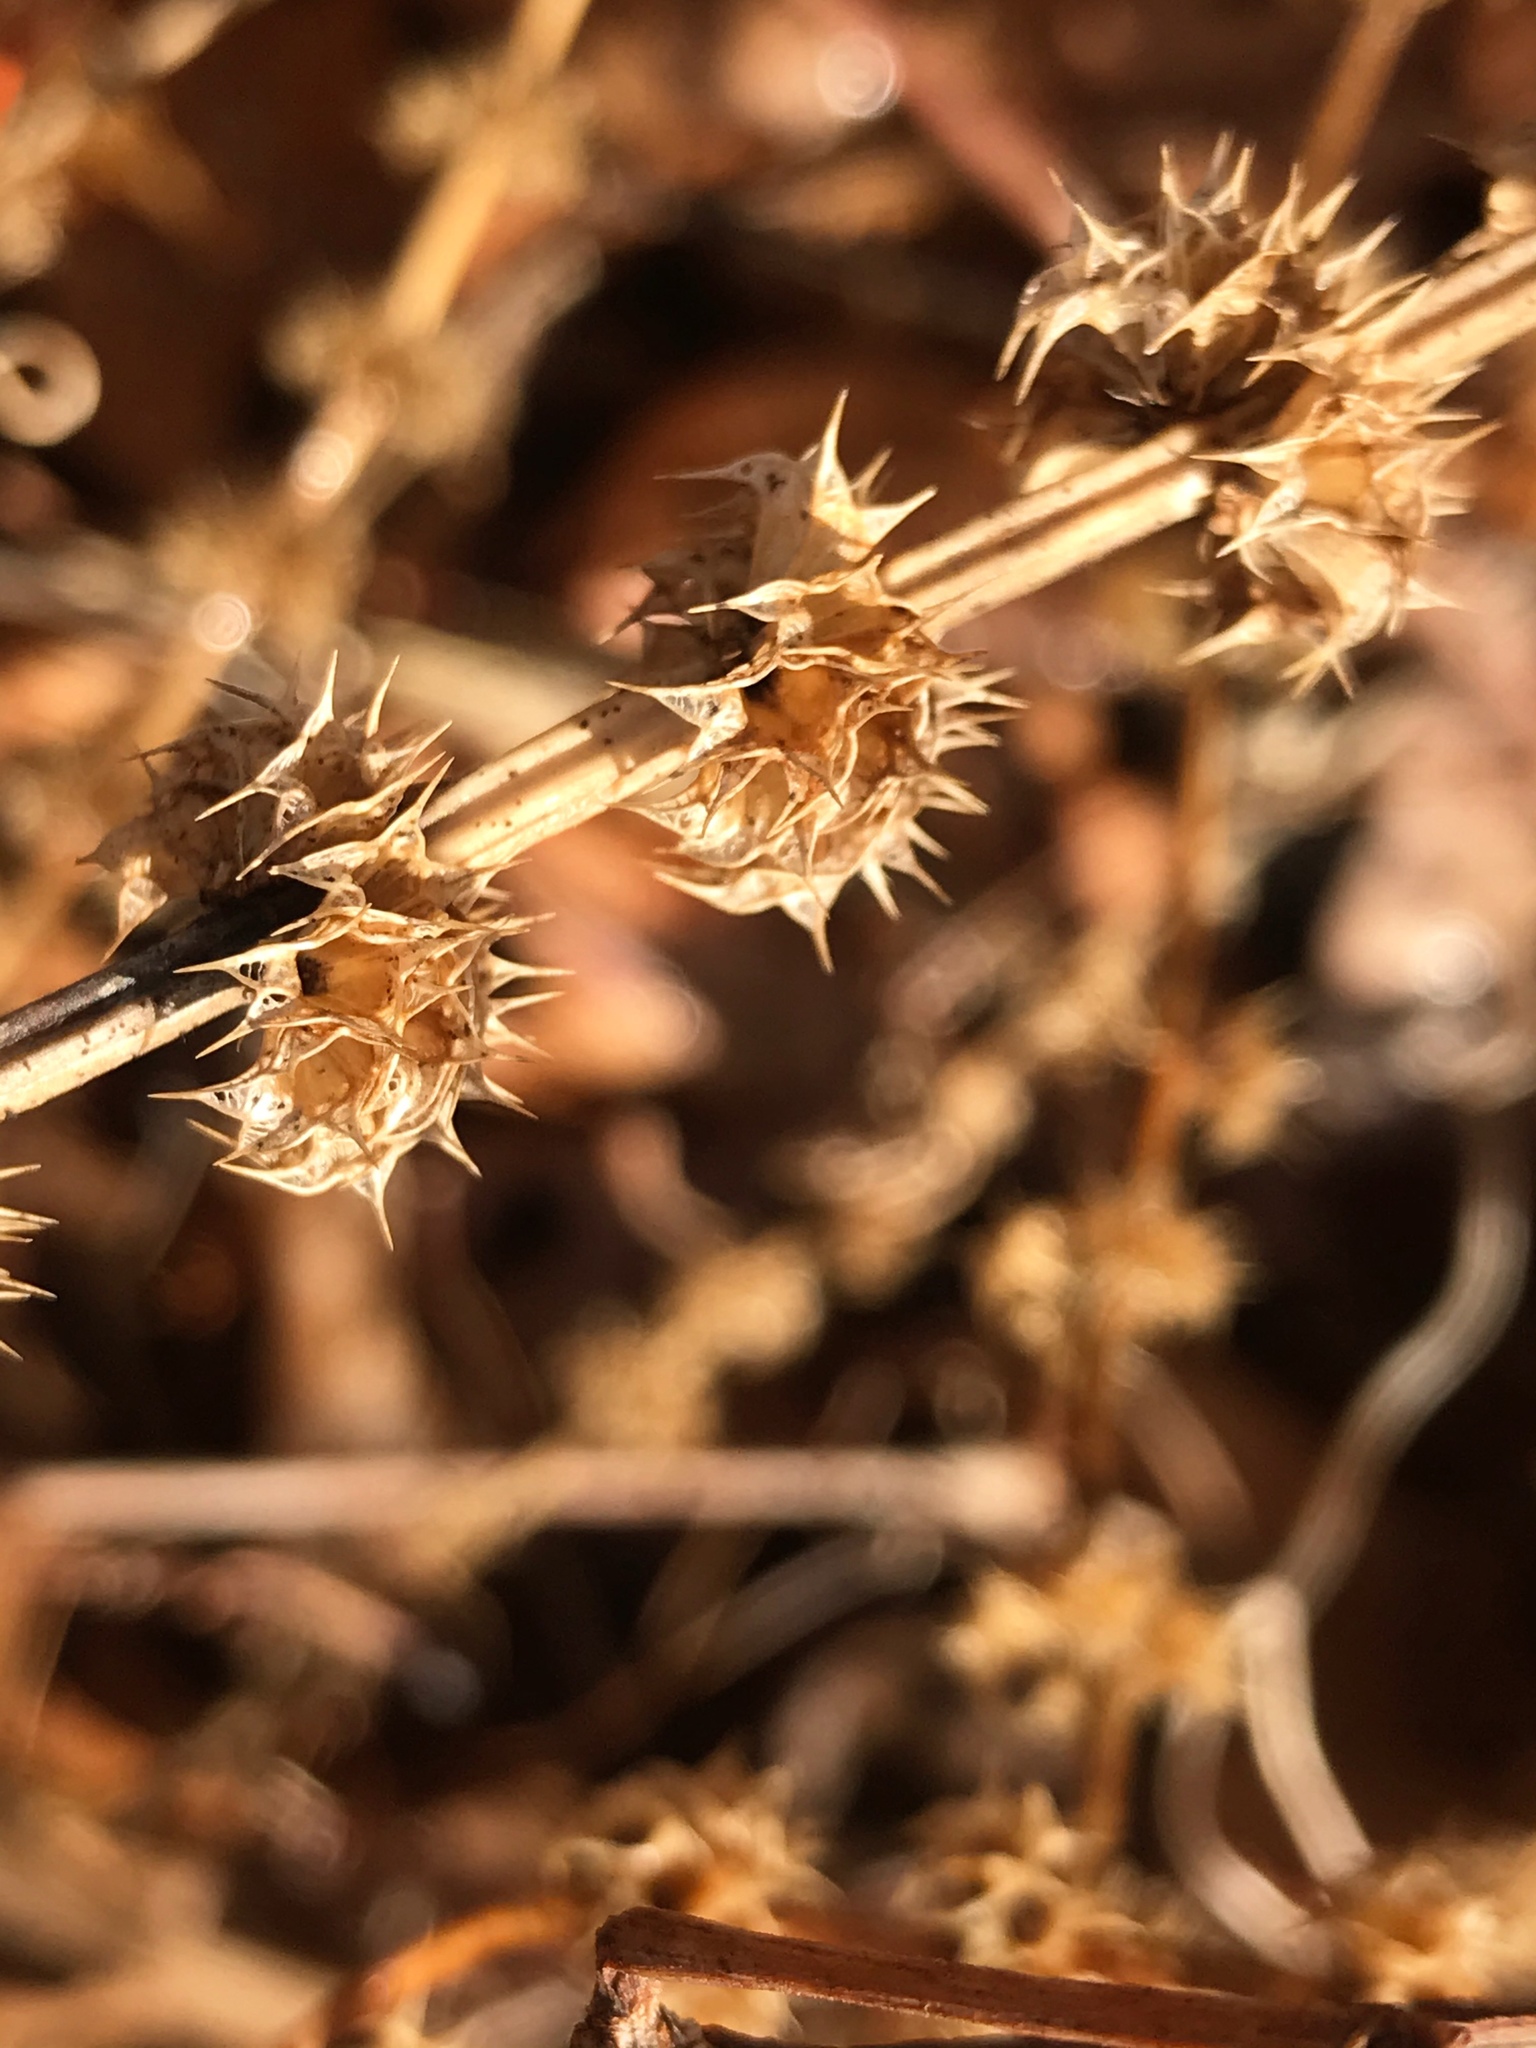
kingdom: Plantae
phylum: Tracheophyta
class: Magnoliopsida
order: Lamiales
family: Lamiaceae
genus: Leonurus
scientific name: Leonurus cardiaca
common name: Motherwort
